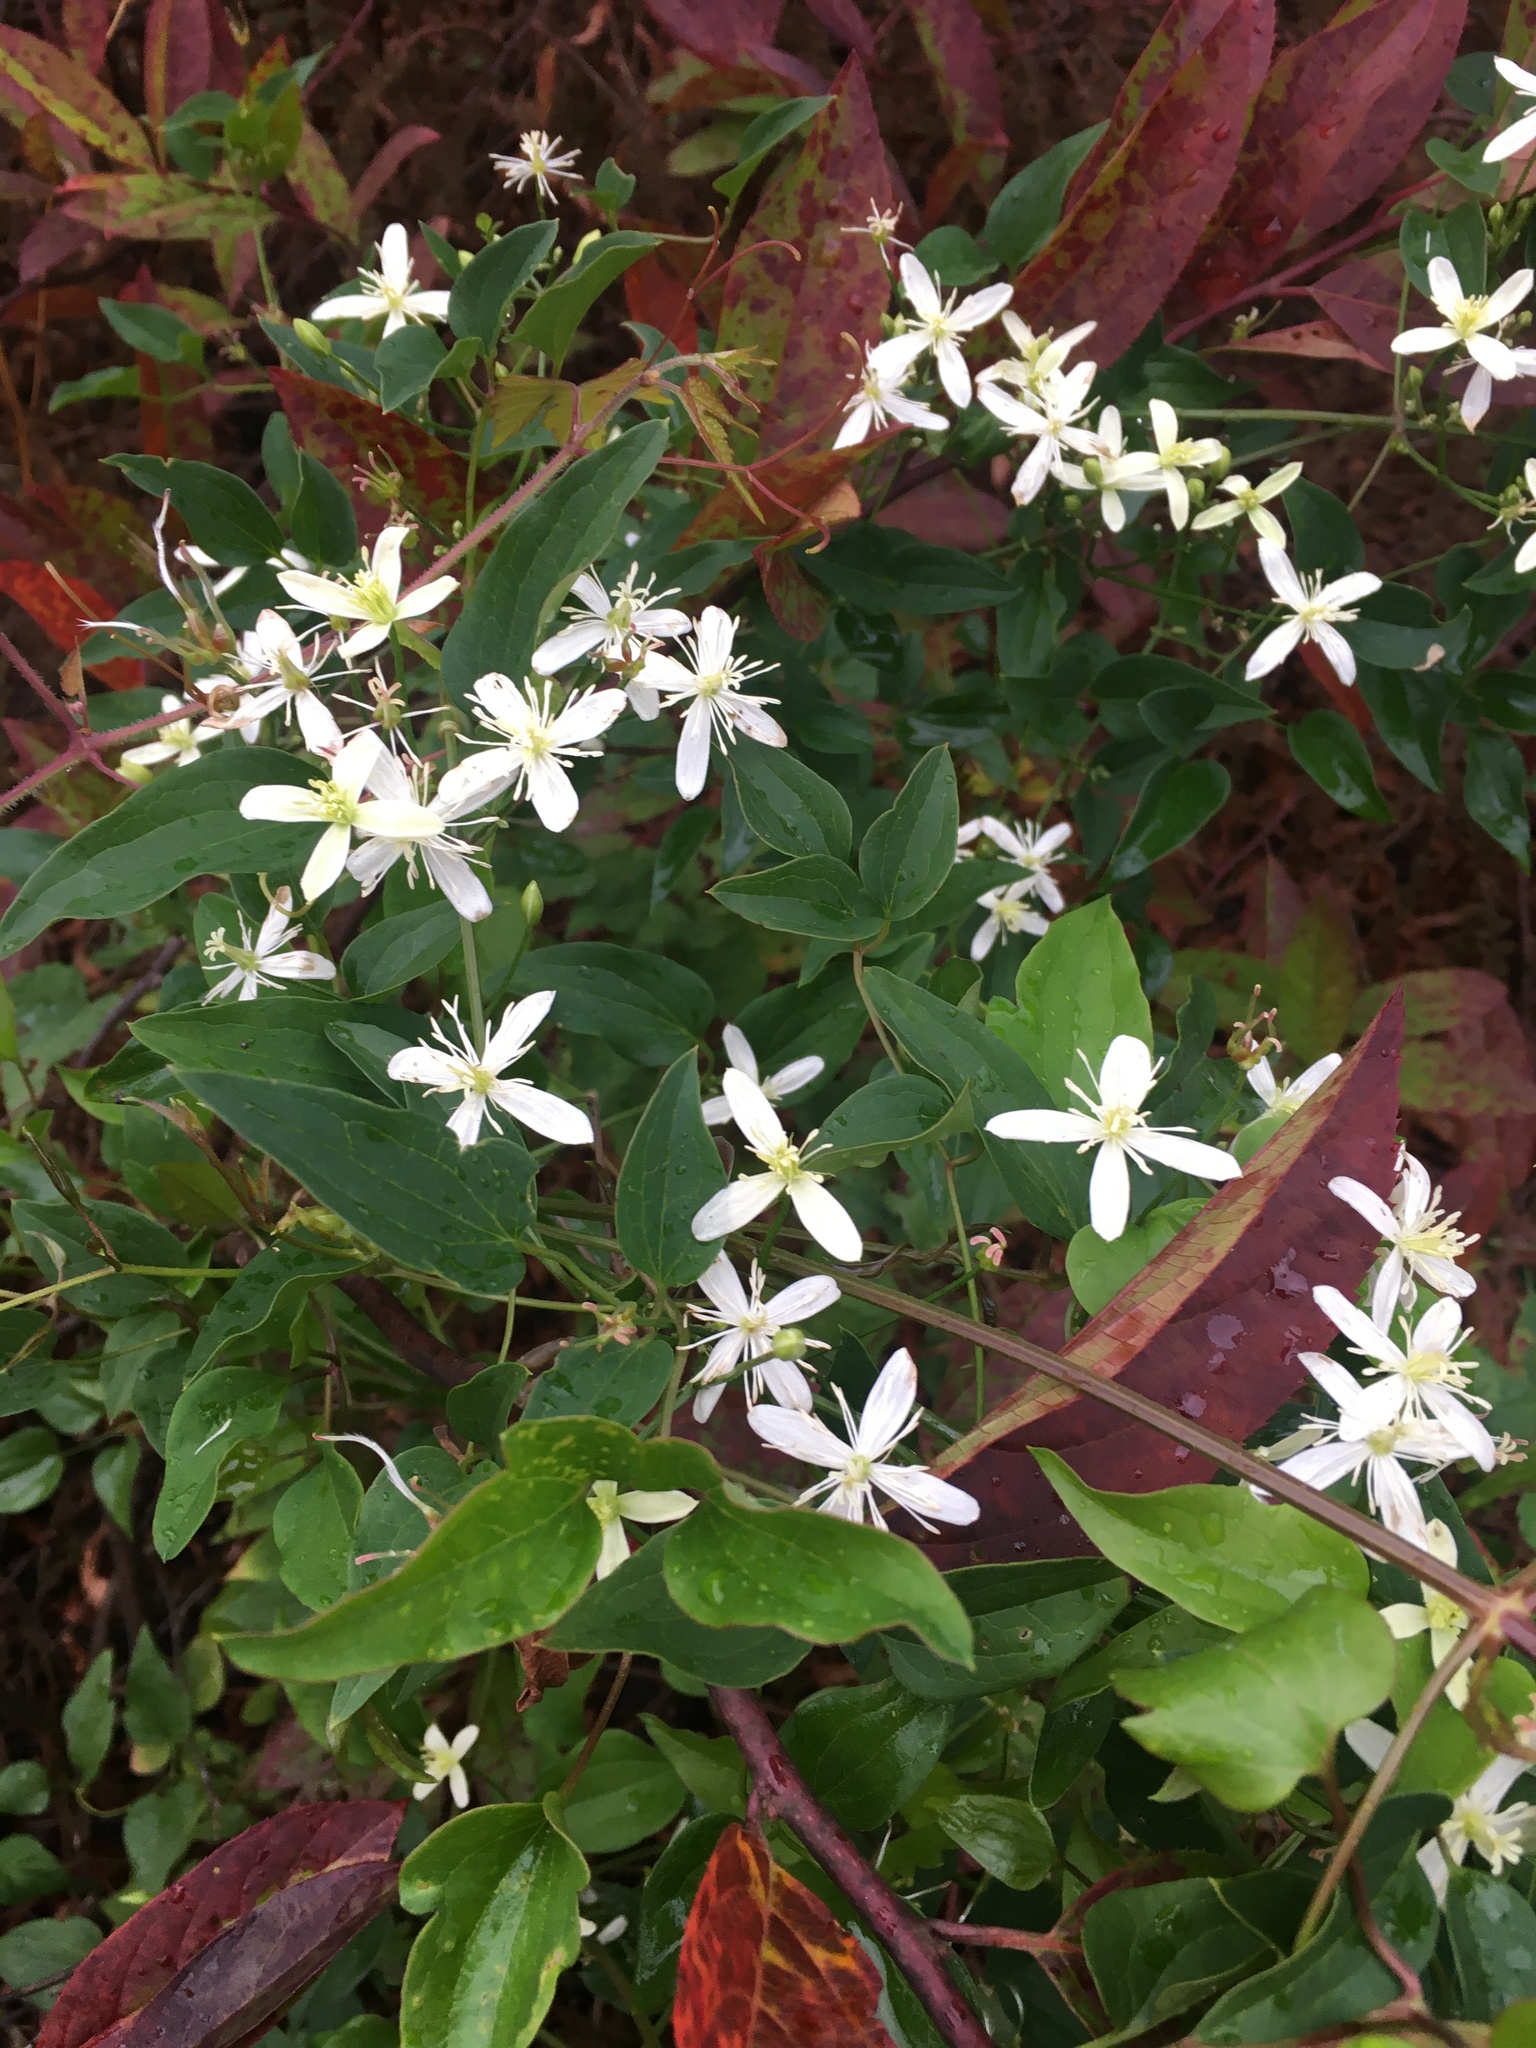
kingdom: Plantae
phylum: Tracheophyta
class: Magnoliopsida
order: Ranunculales
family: Ranunculaceae
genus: Clematis
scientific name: Clematis terniflora
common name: Sweet autumn clematis
